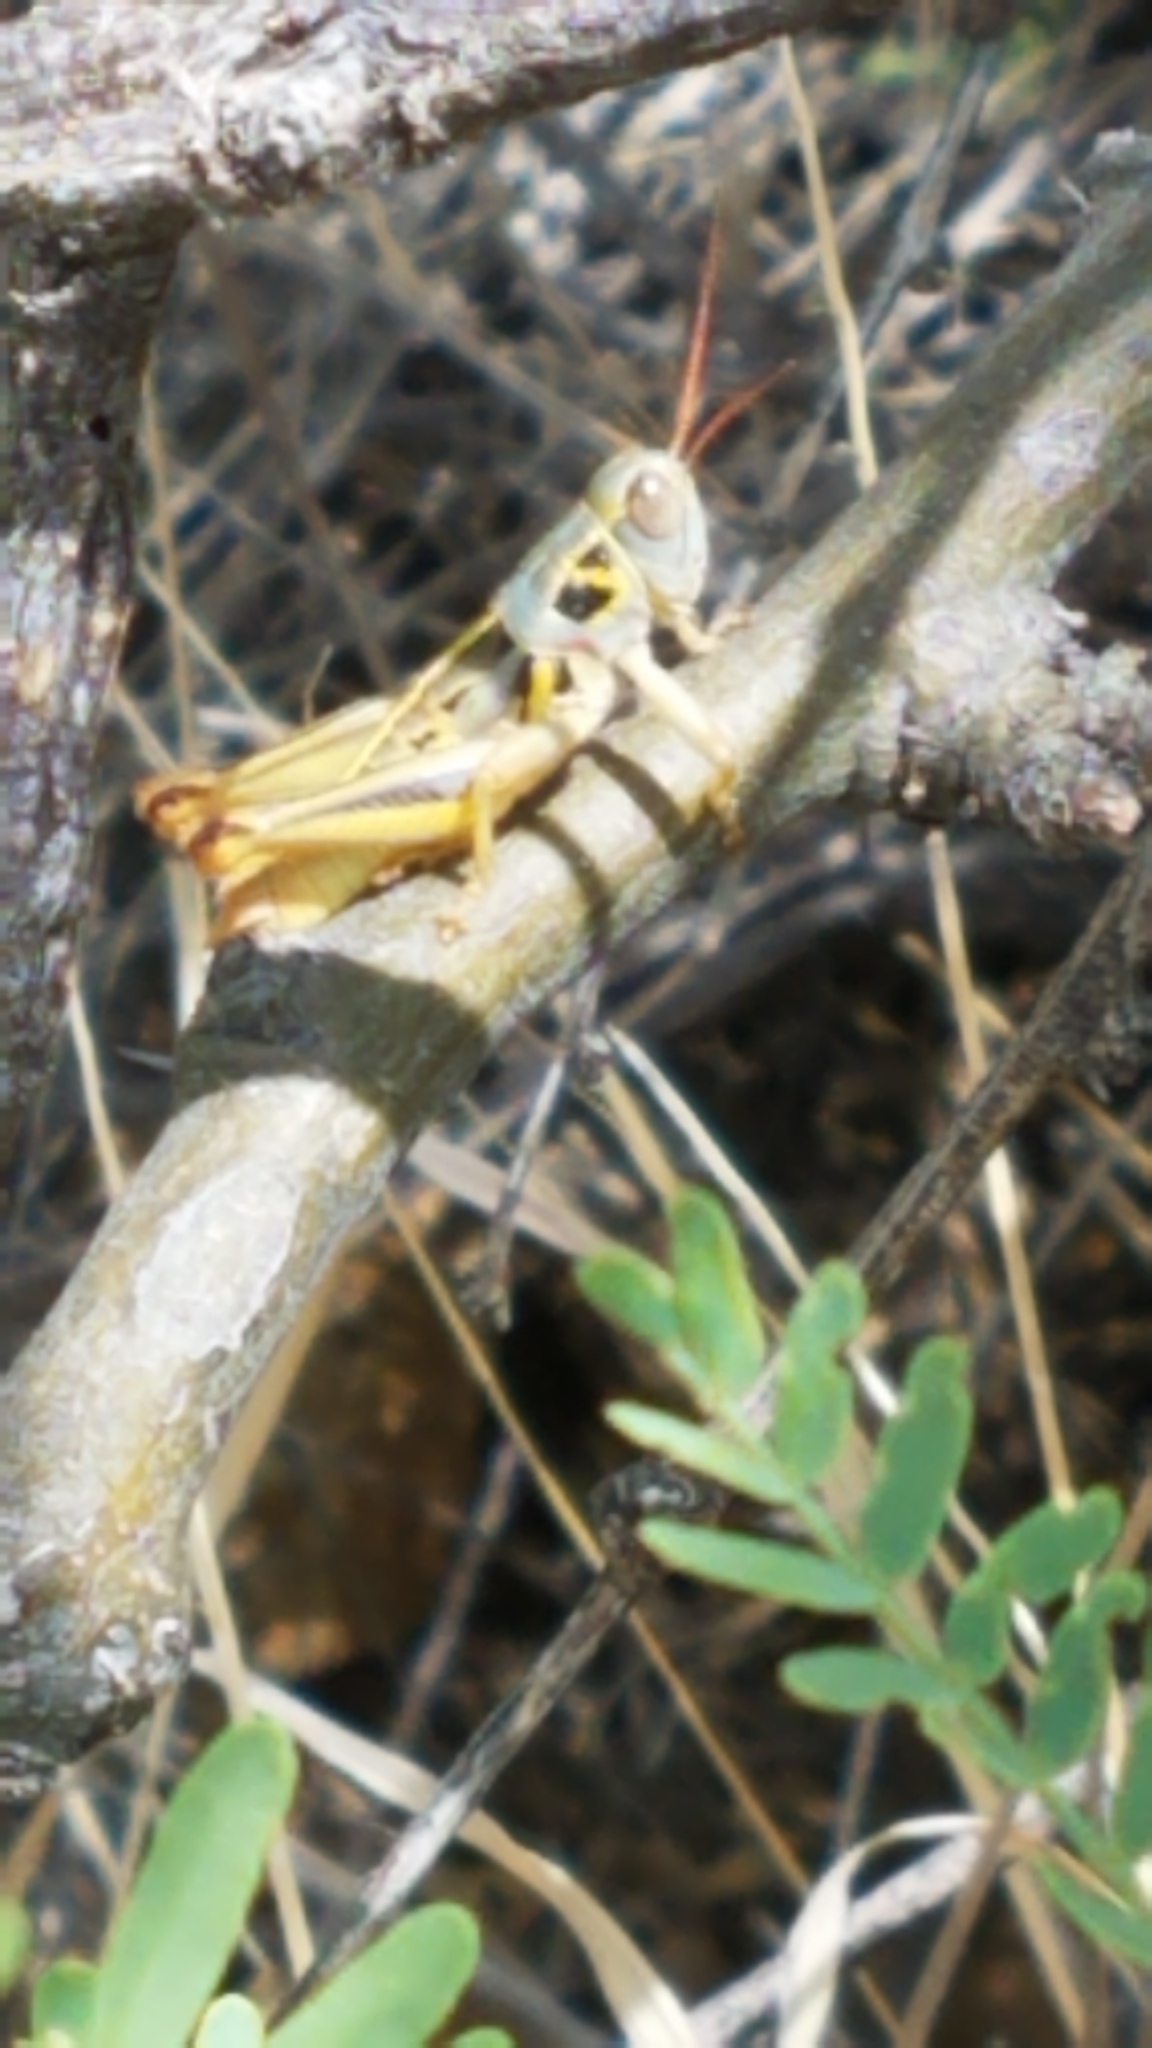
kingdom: Animalia
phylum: Arthropoda
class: Insecta
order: Orthoptera
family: Acrididae
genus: Barytettix
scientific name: Barytettix humphreysii
